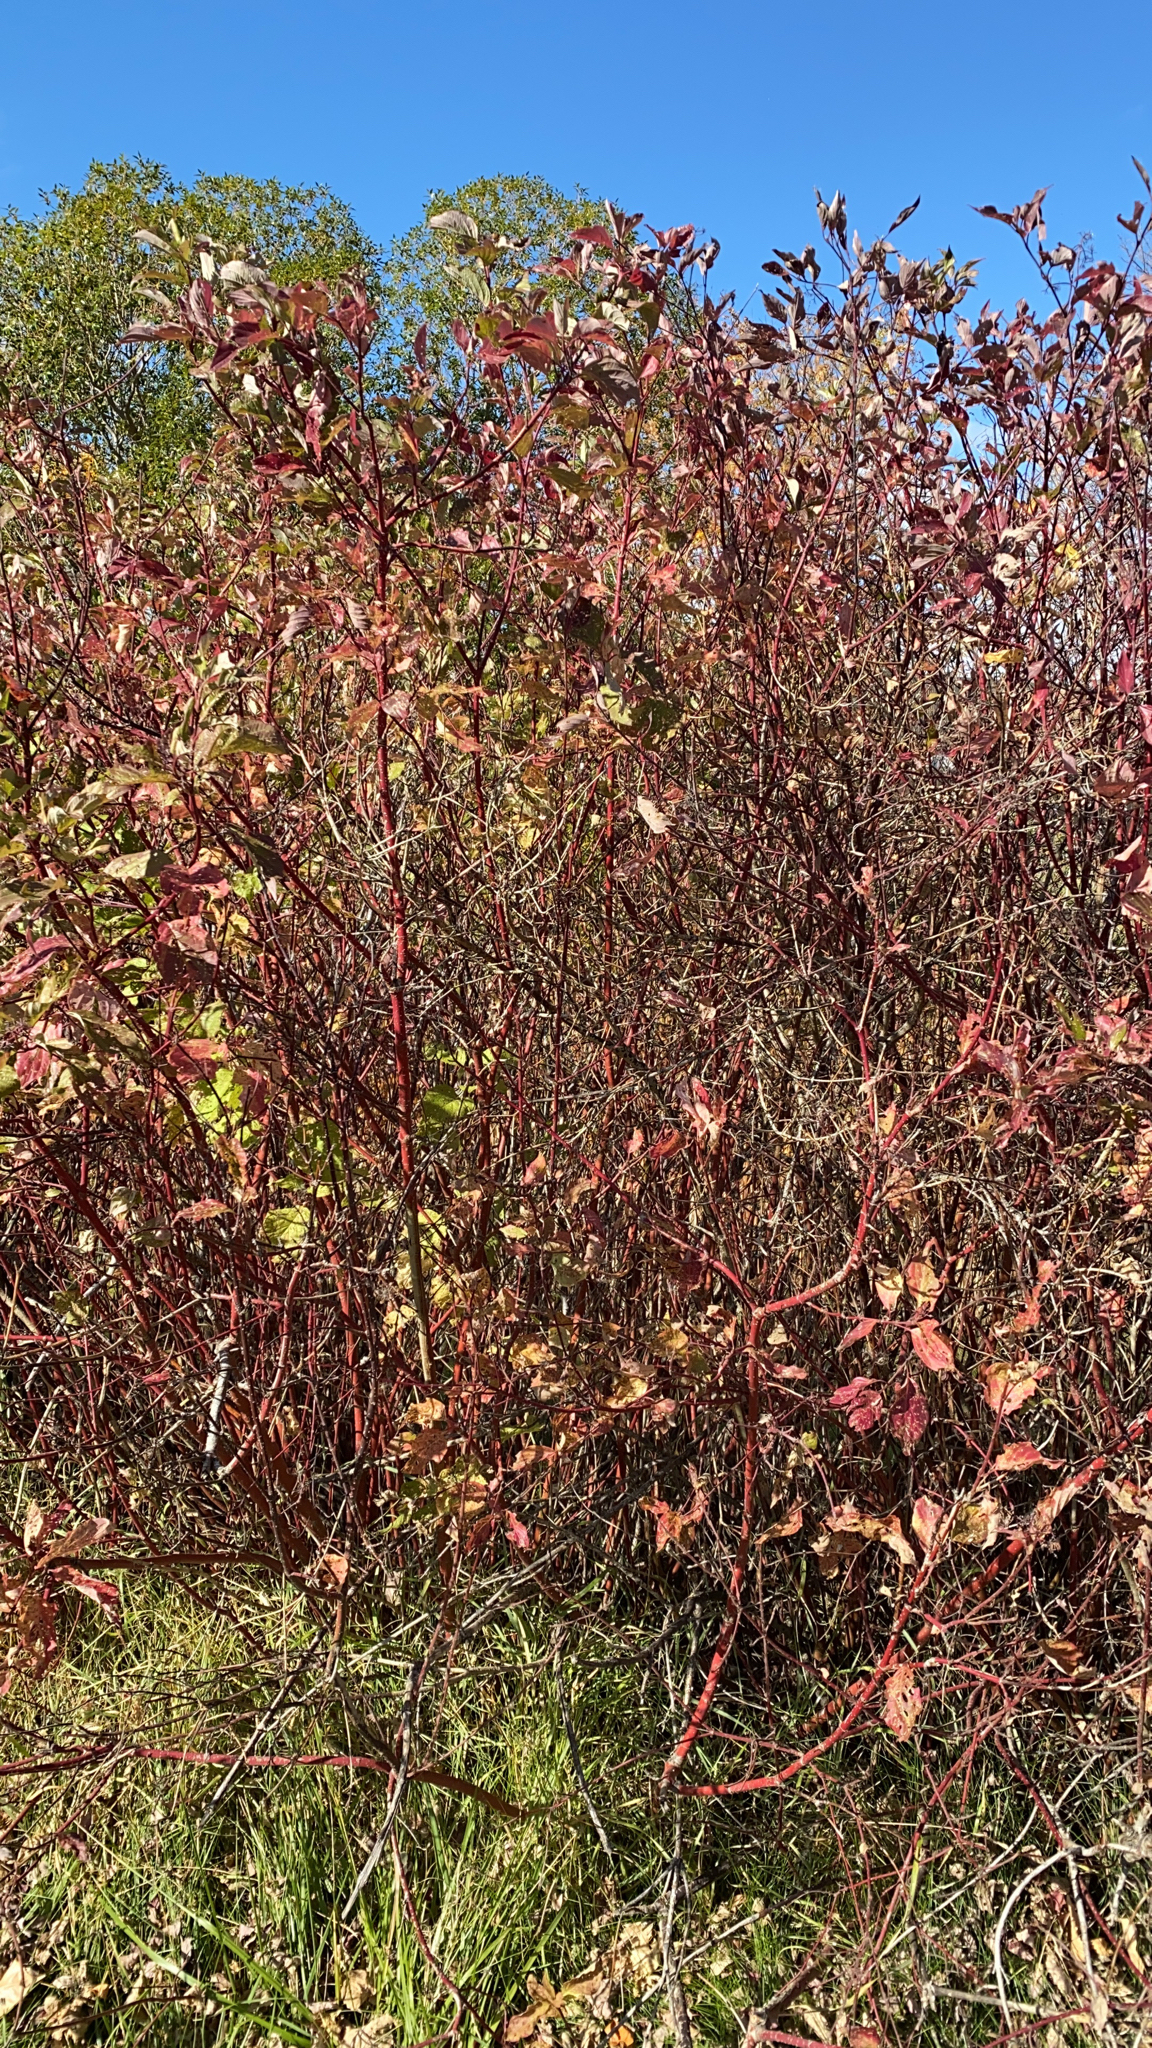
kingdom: Plantae
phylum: Tracheophyta
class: Magnoliopsida
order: Cornales
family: Cornaceae
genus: Cornus
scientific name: Cornus sericea
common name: Red-osier dogwood
